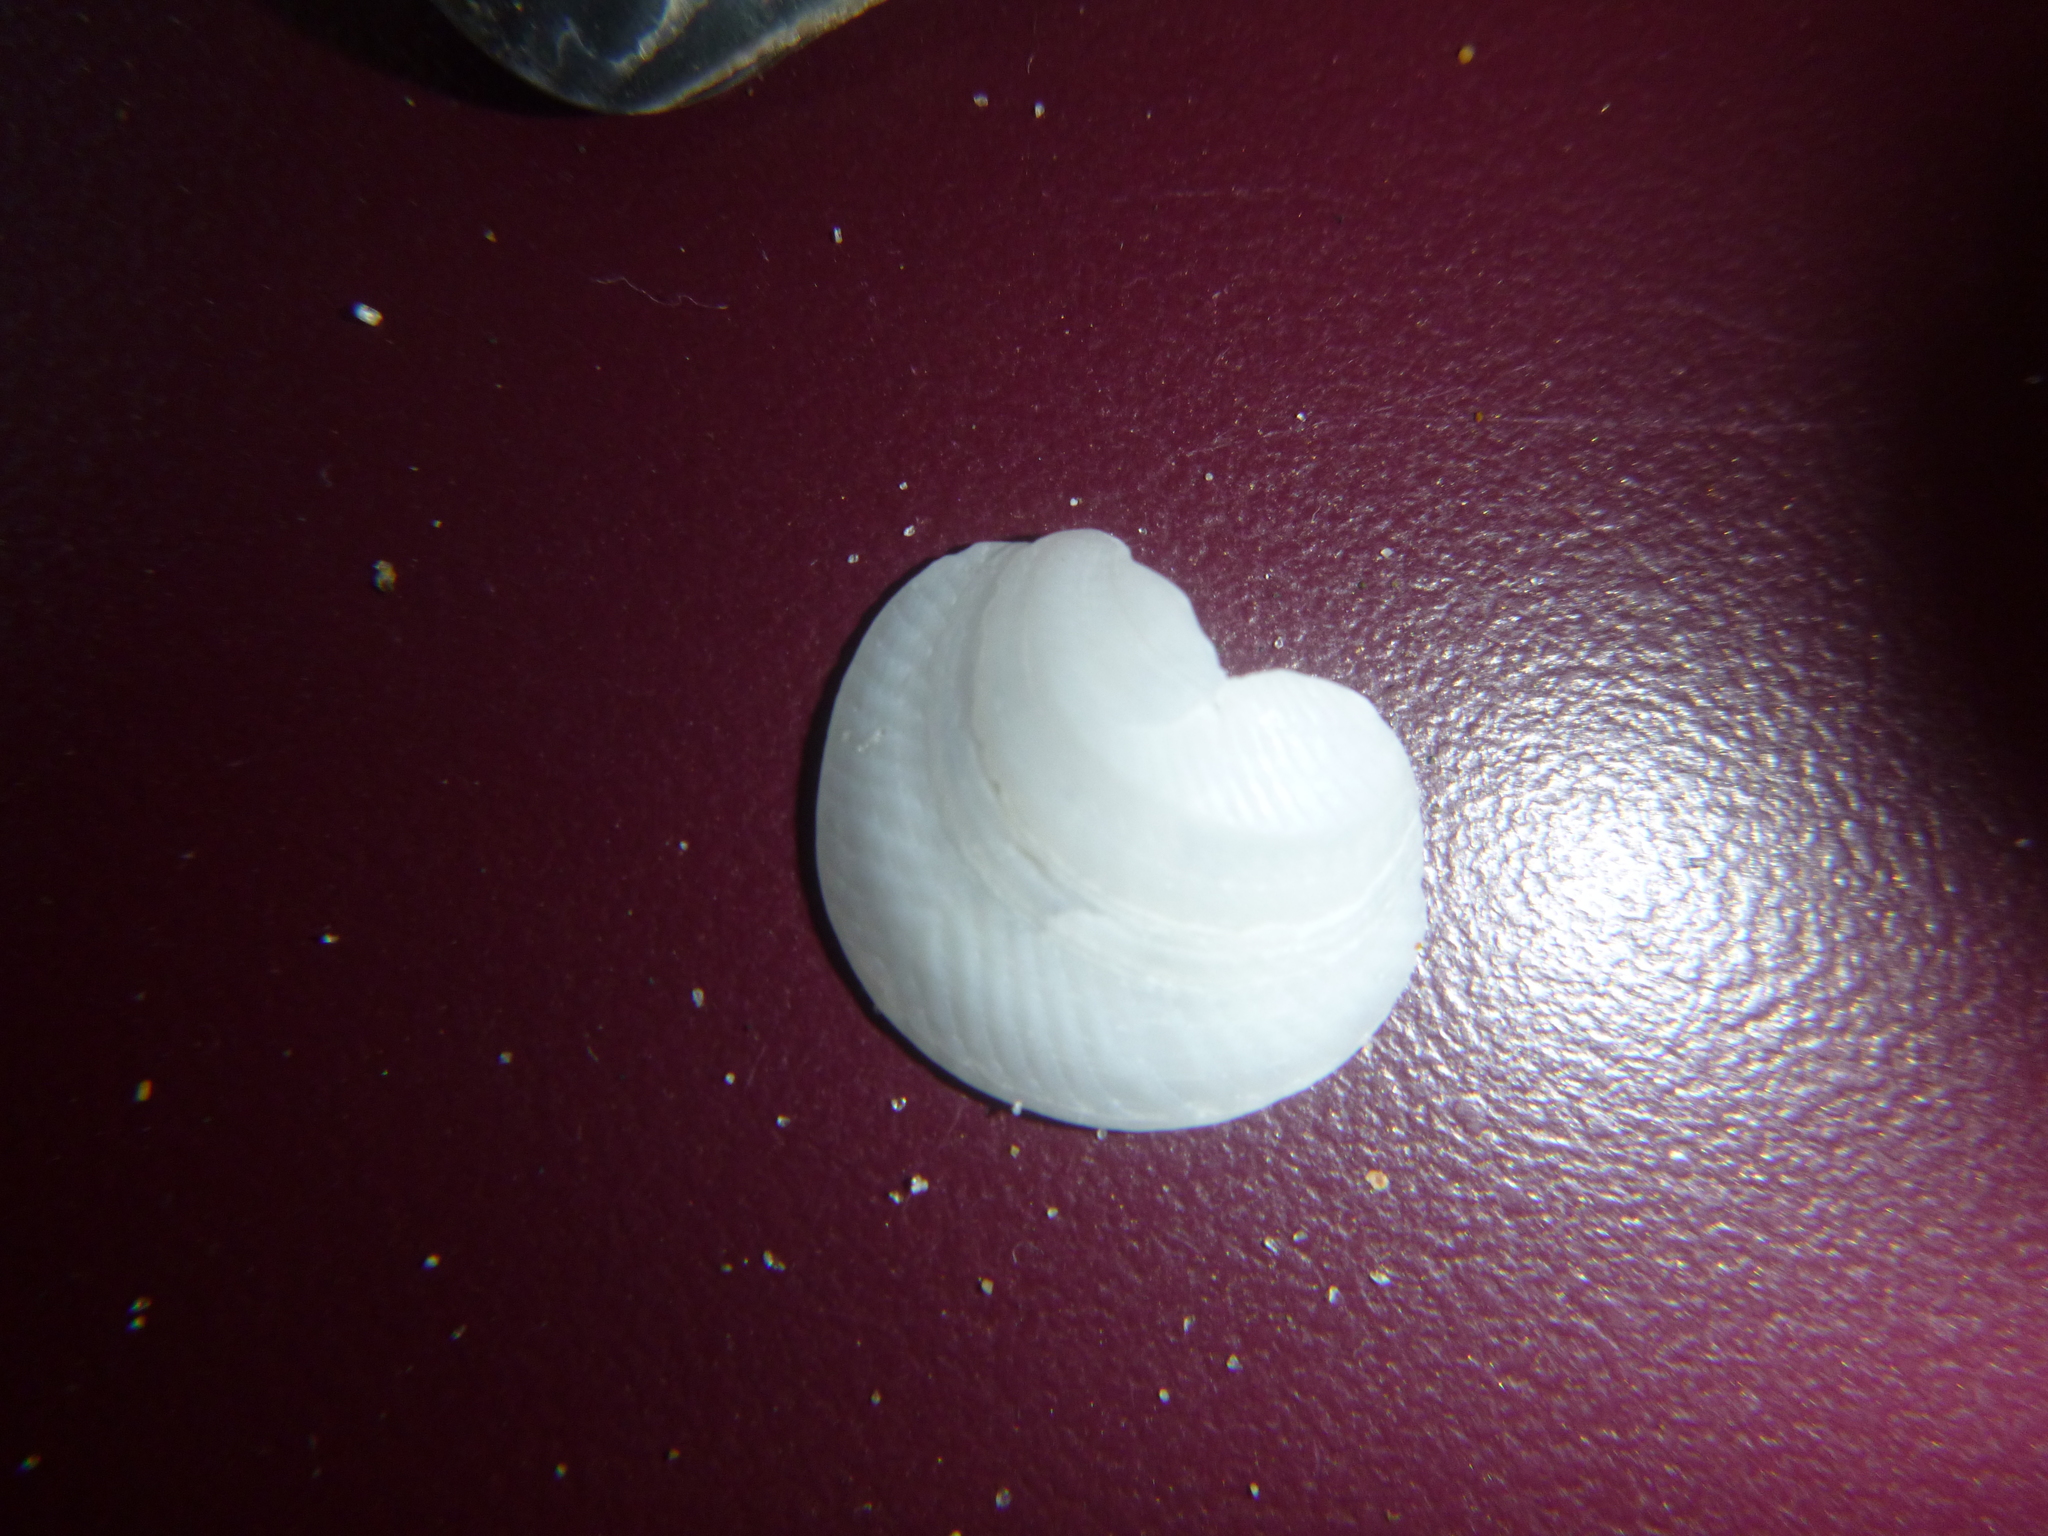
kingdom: Animalia
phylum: Mollusca
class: Bivalvia
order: Lucinida
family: Lucinidae
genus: Divalucina
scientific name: Divalucina cumingi
